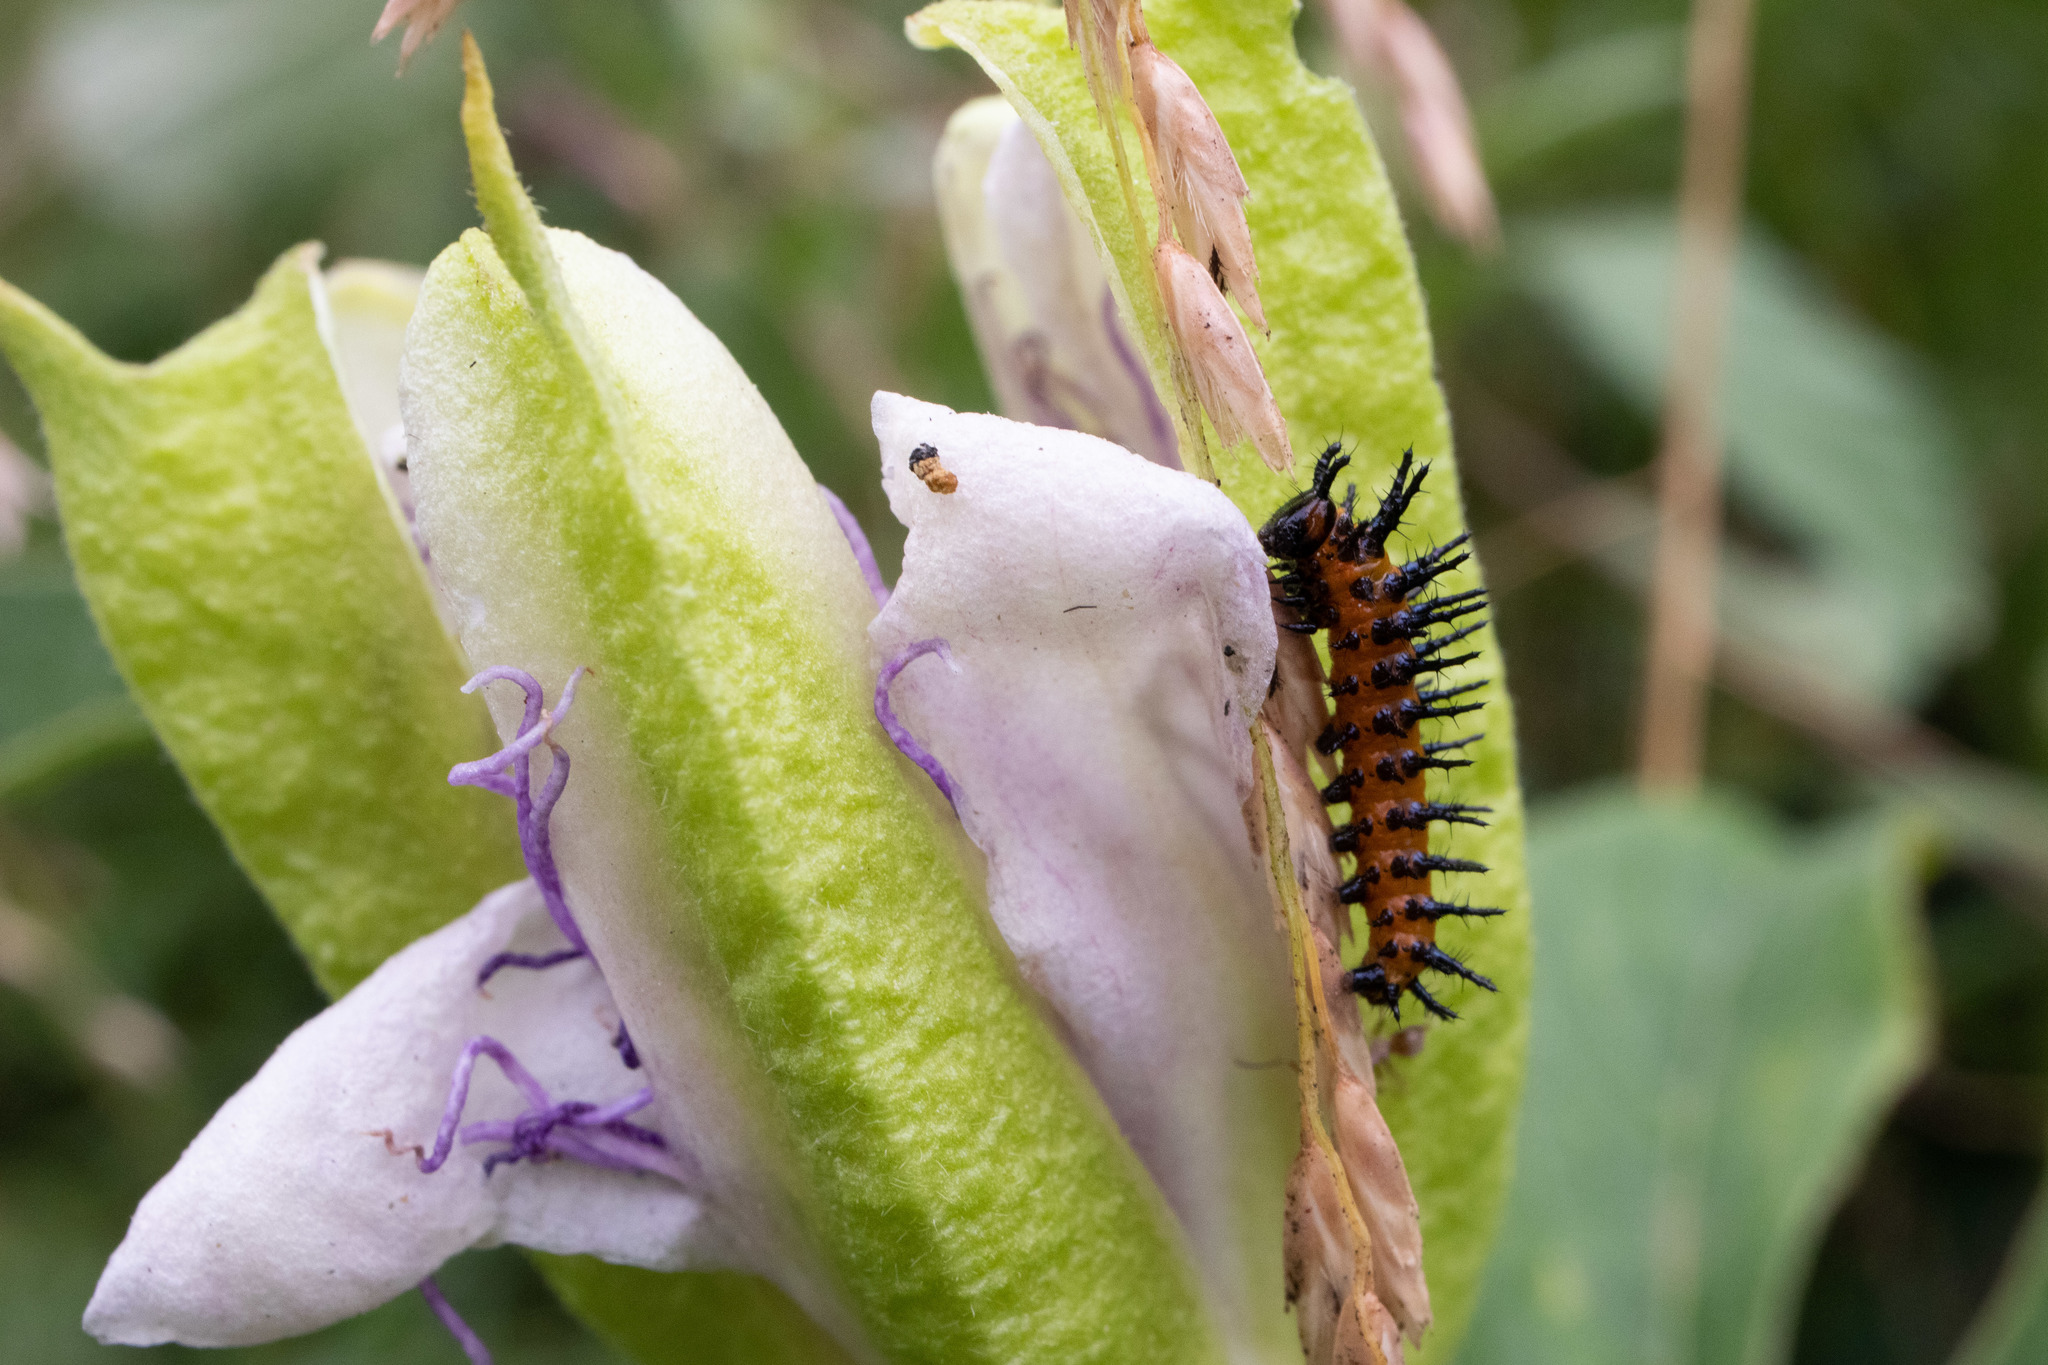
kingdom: Animalia
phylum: Arthropoda
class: Insecta
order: Lepidoptera
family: Nymphalidae
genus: Dione
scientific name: Dione vanillae
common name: Gulf fritillary
